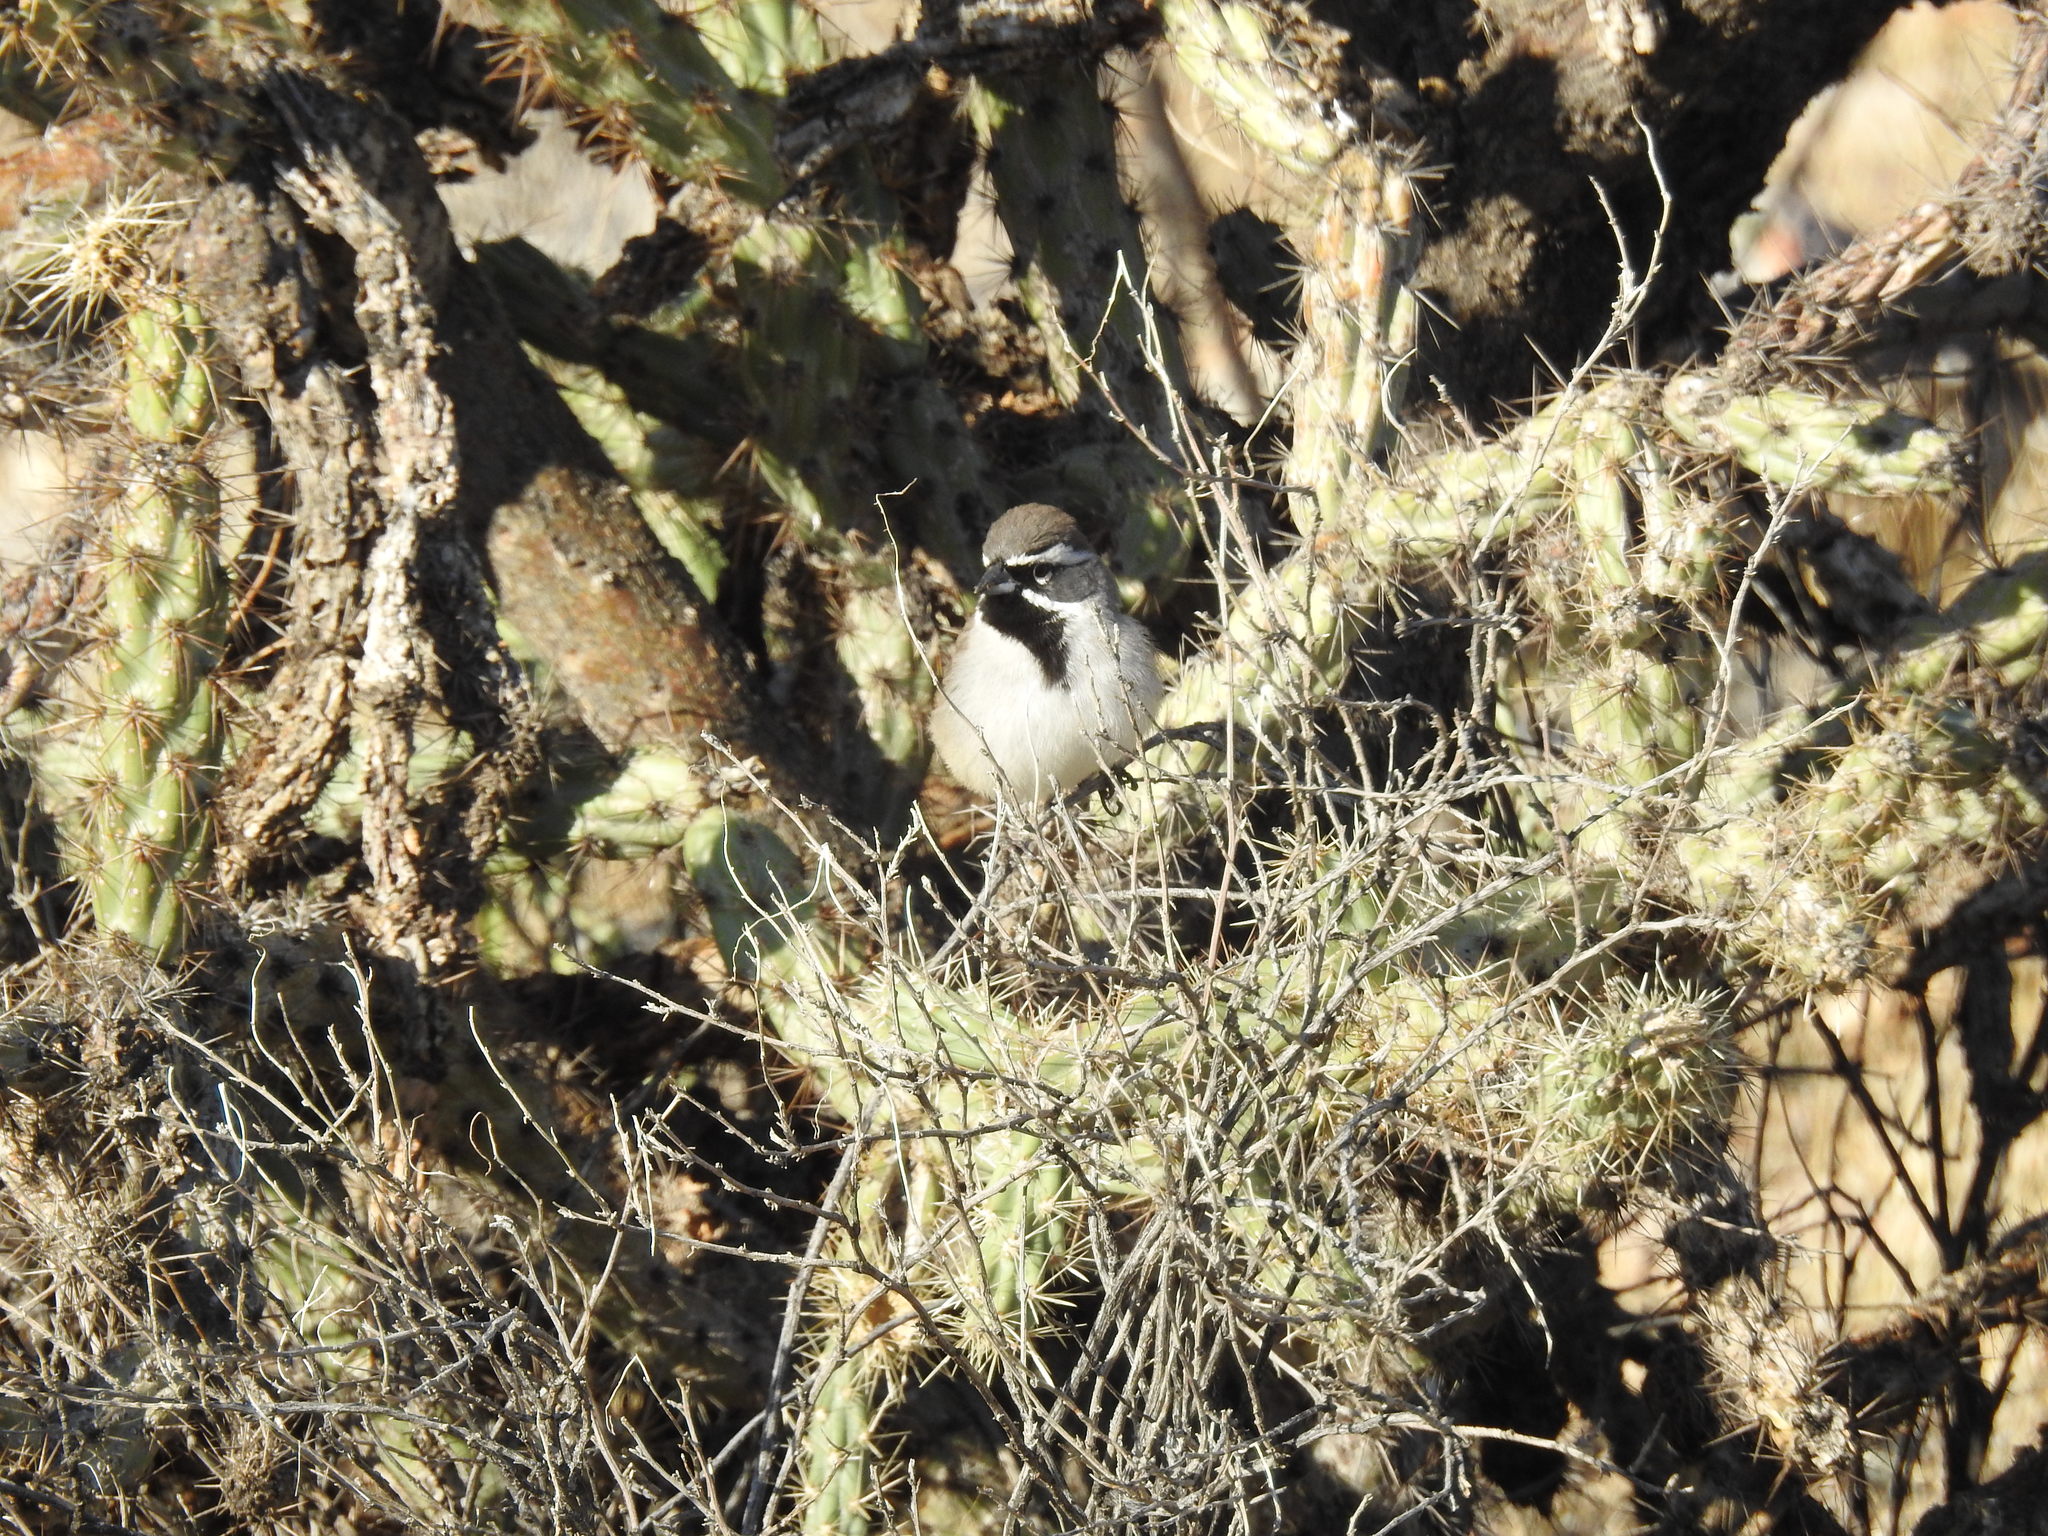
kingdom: Animalia
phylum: Chordata
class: Aves
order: Passeriformes
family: Passerellidae
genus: Amphispiza
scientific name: Amphispiza bilineata
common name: Black-throated sparrow
